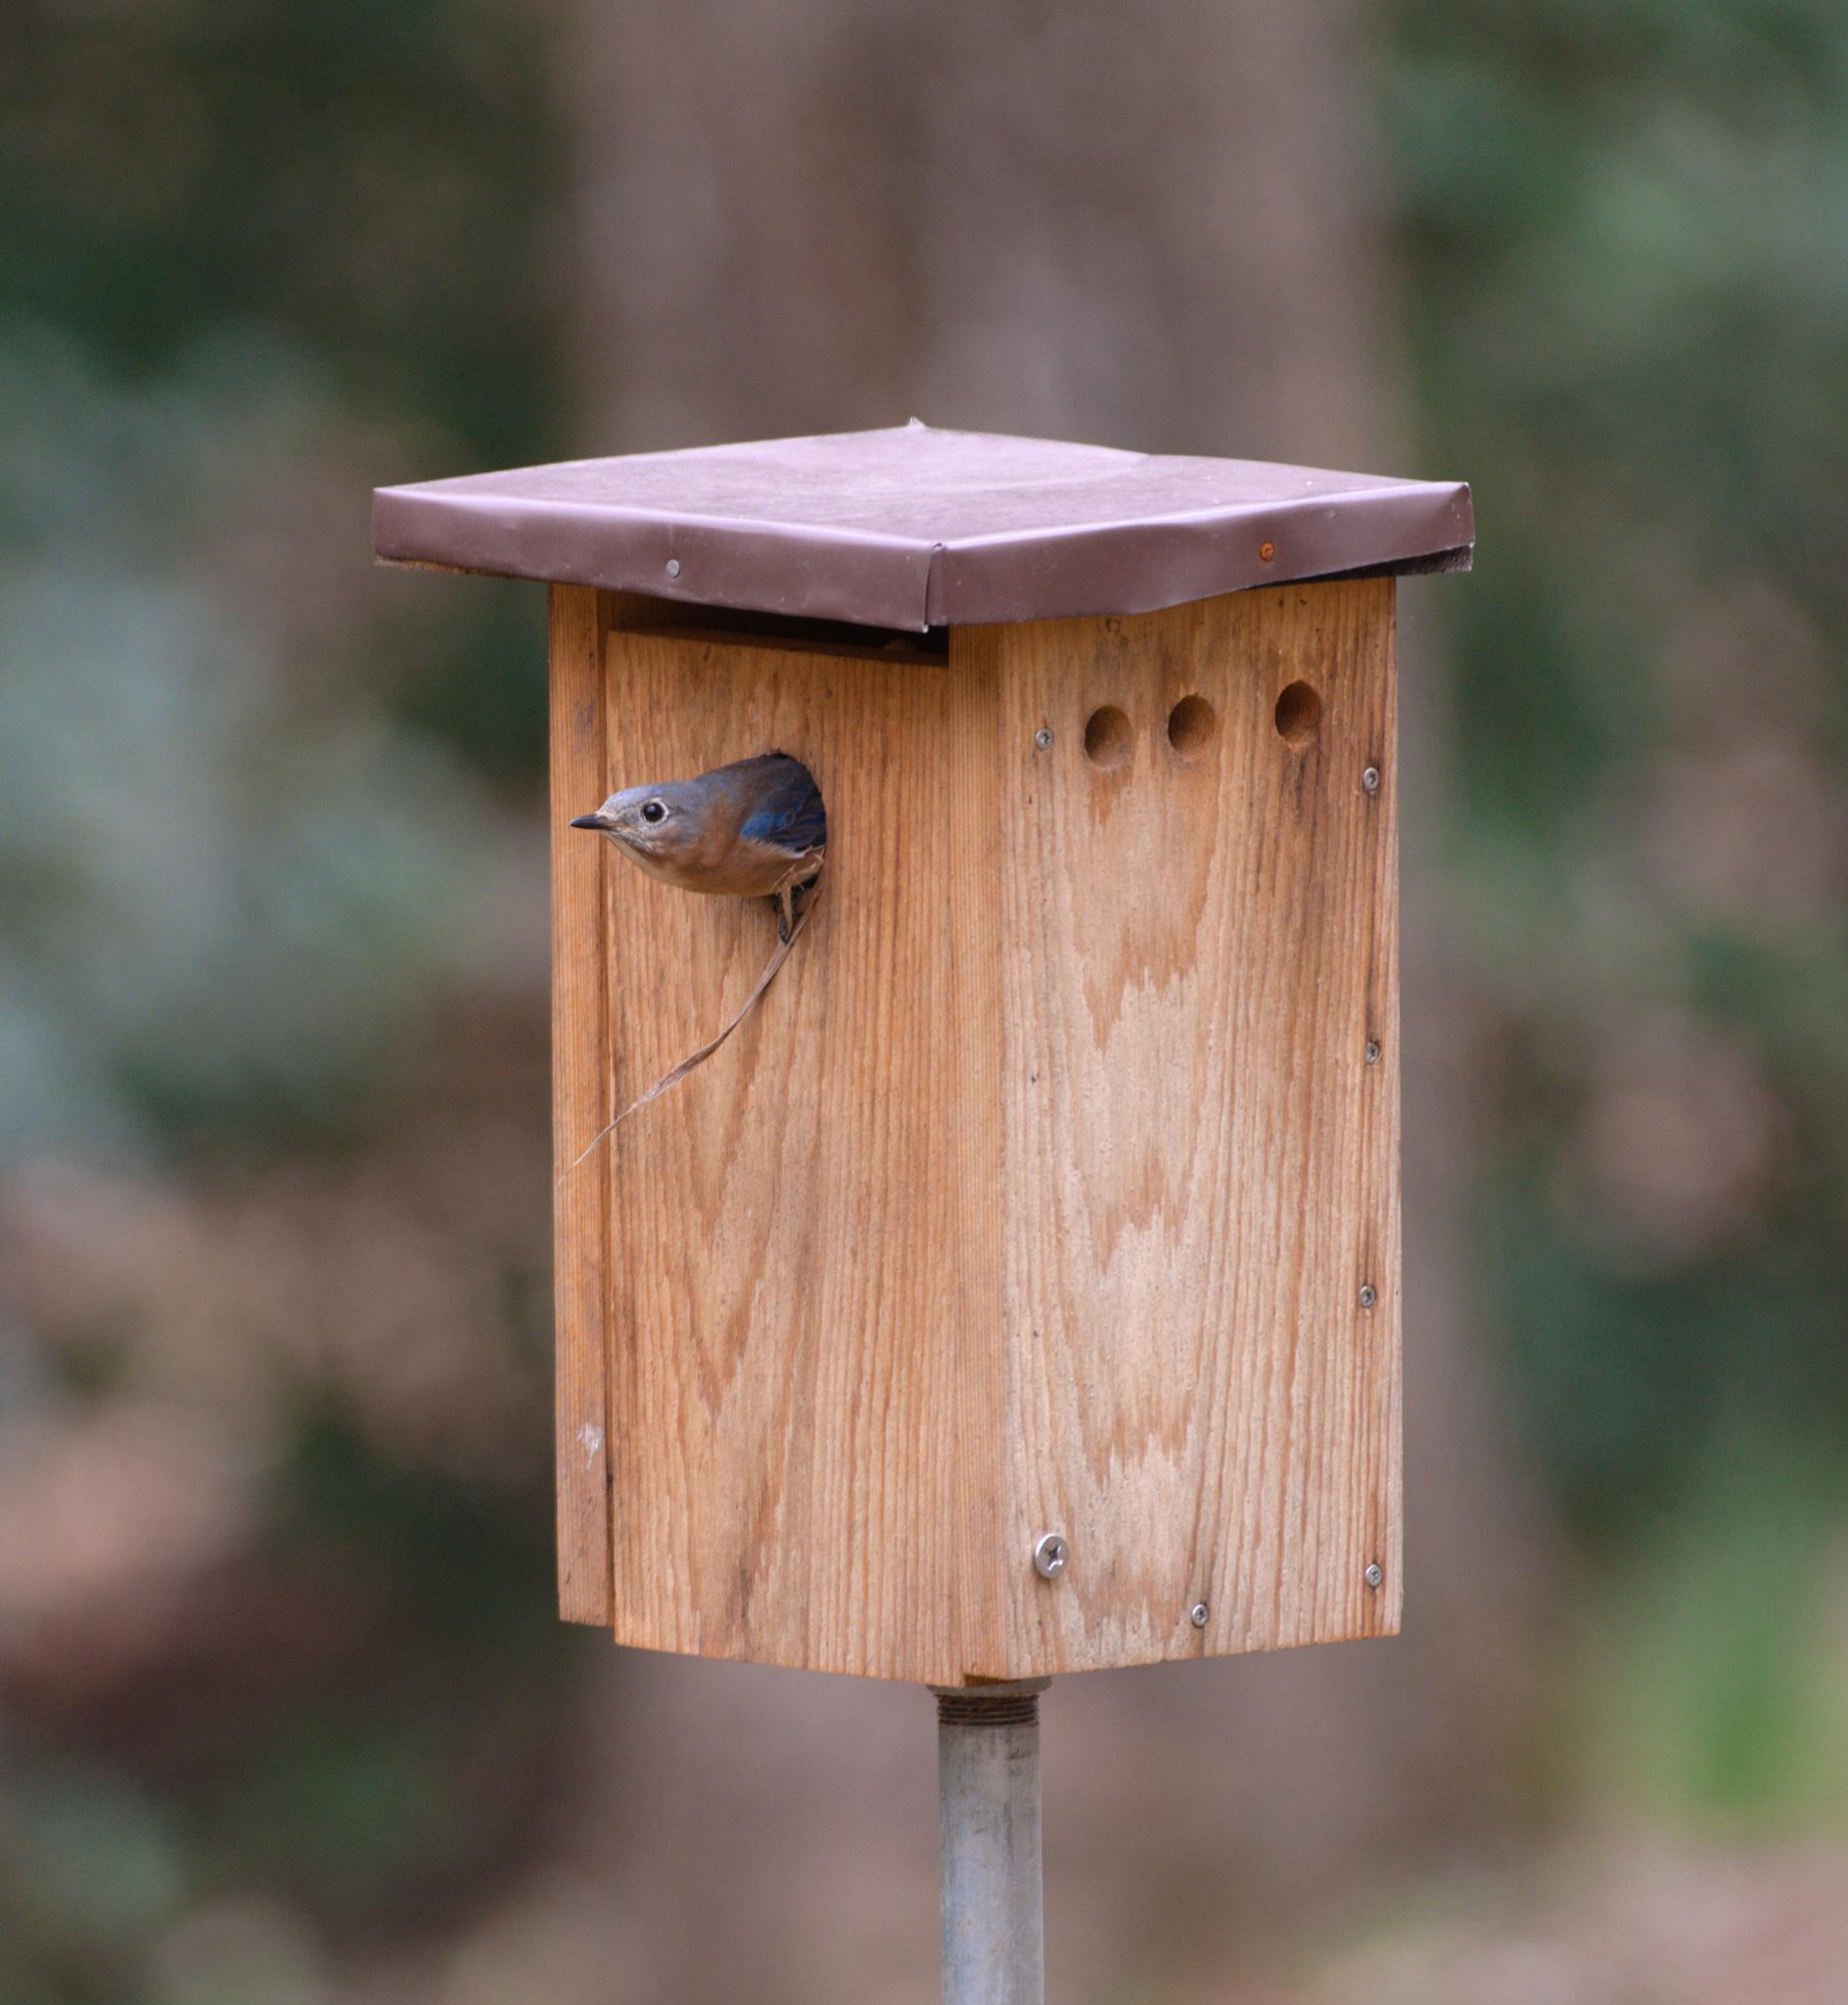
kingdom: Animalia
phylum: Chordata
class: Aves
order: Passeriformes
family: Turdidae
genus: Sialia
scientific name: Sialia sialis
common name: Eastern bluebird
